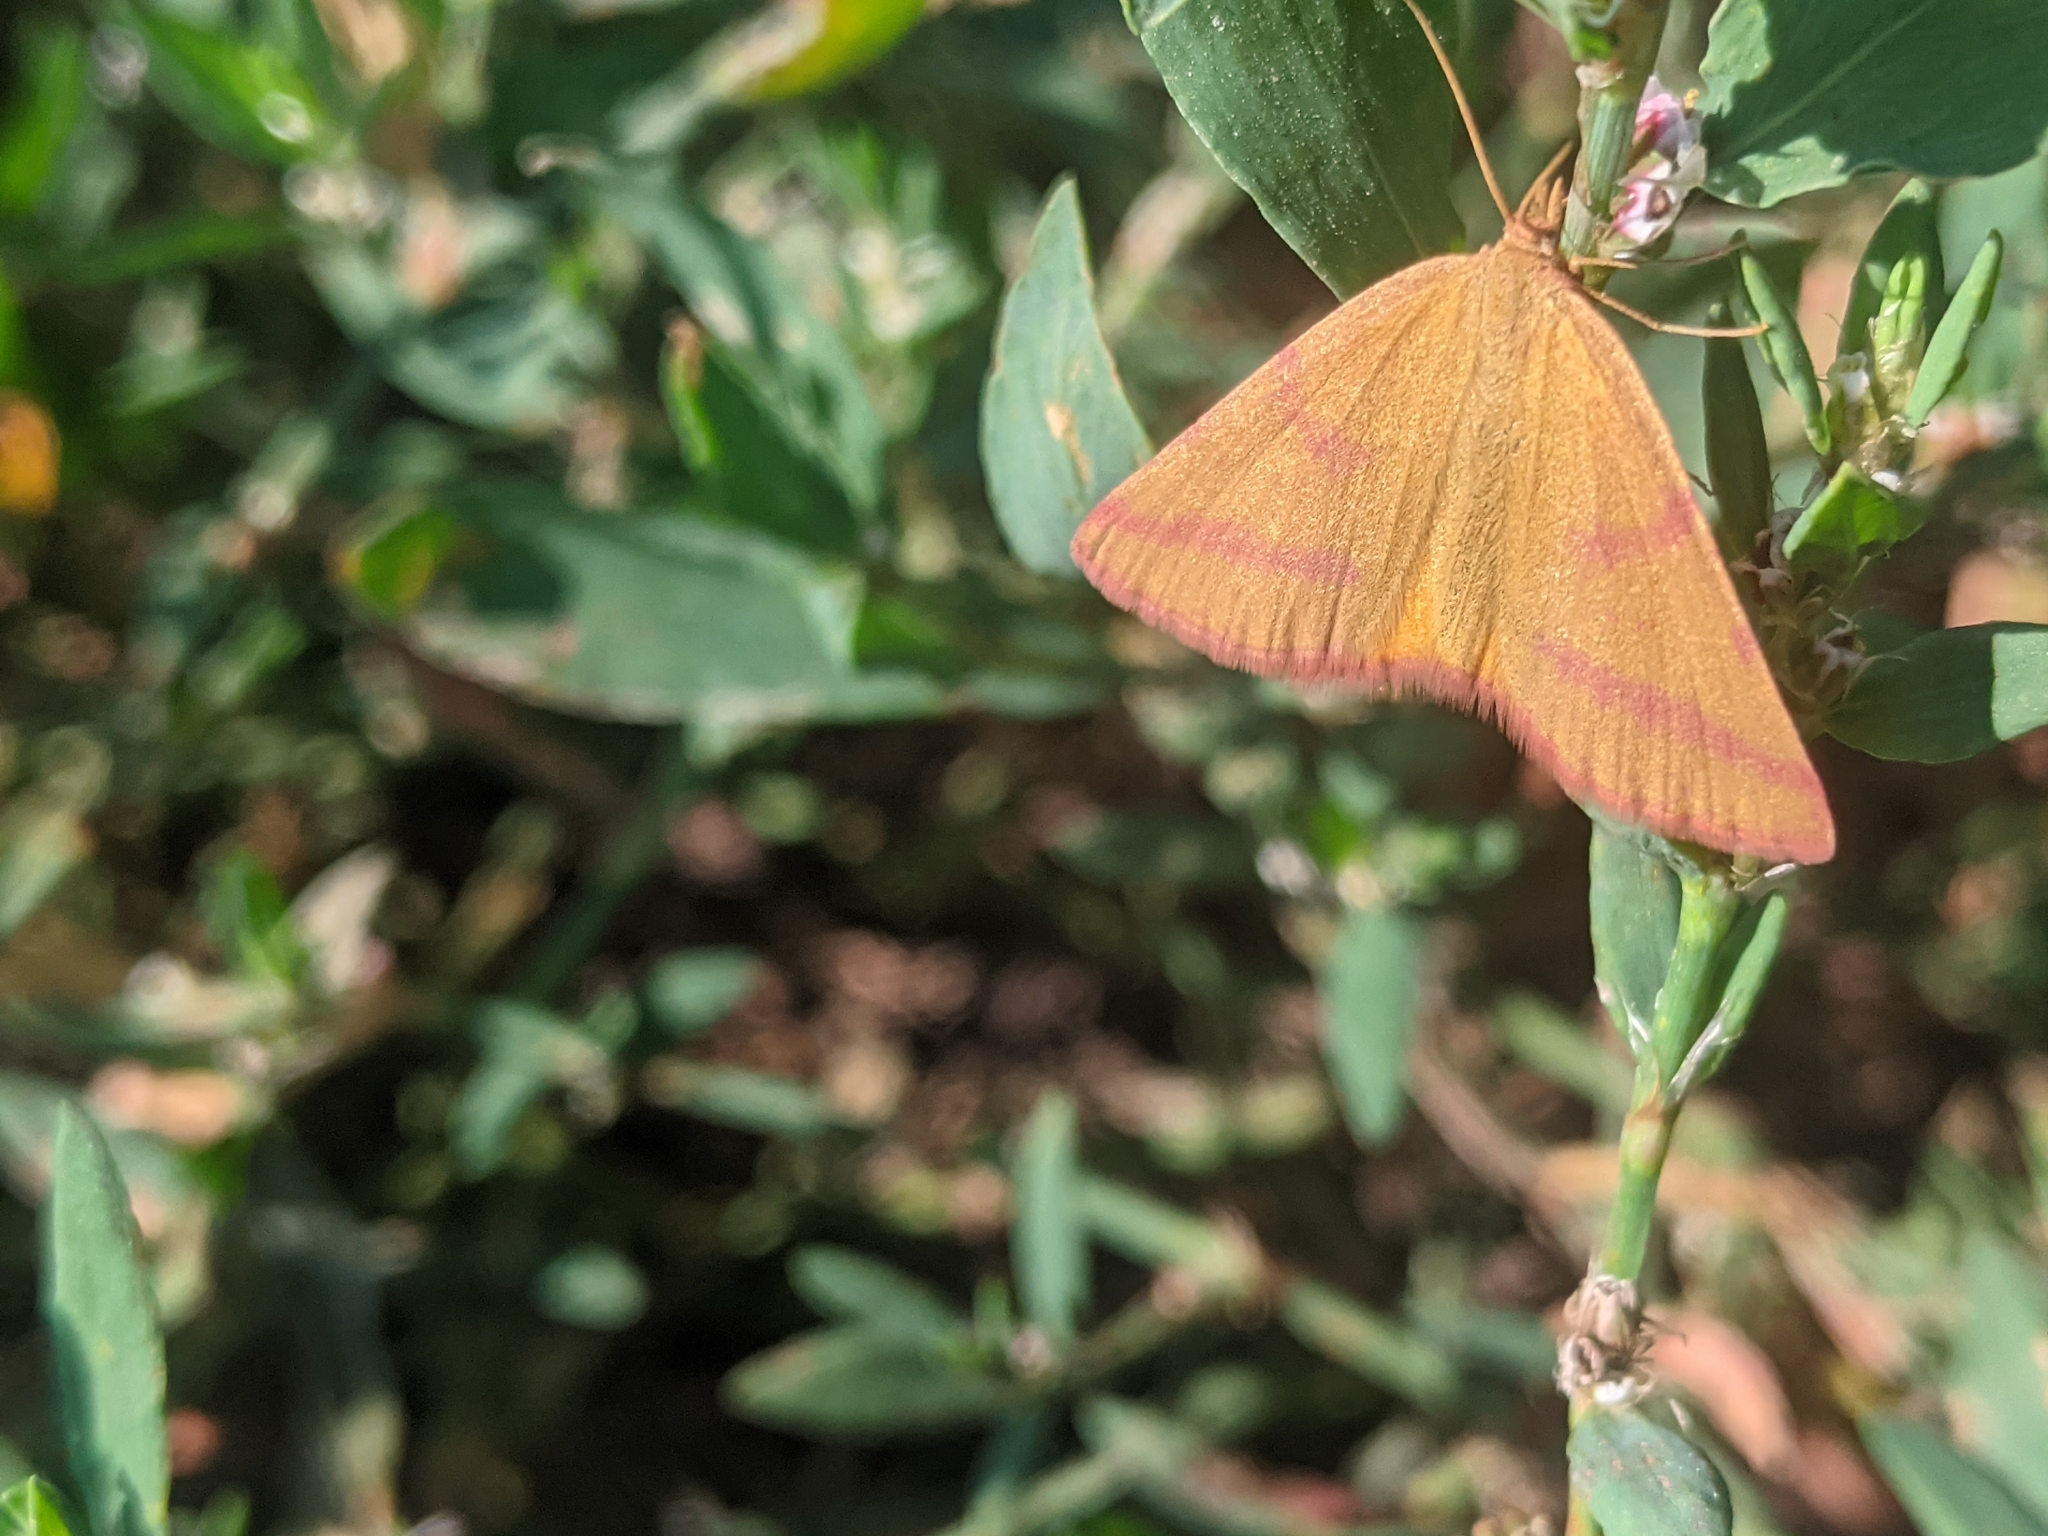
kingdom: Animalia
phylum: Arthropoda
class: Insecta
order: Lepidoptera
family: Geometridae
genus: Lythria
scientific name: Lythria purpuraria
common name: Purple-barred yellow
